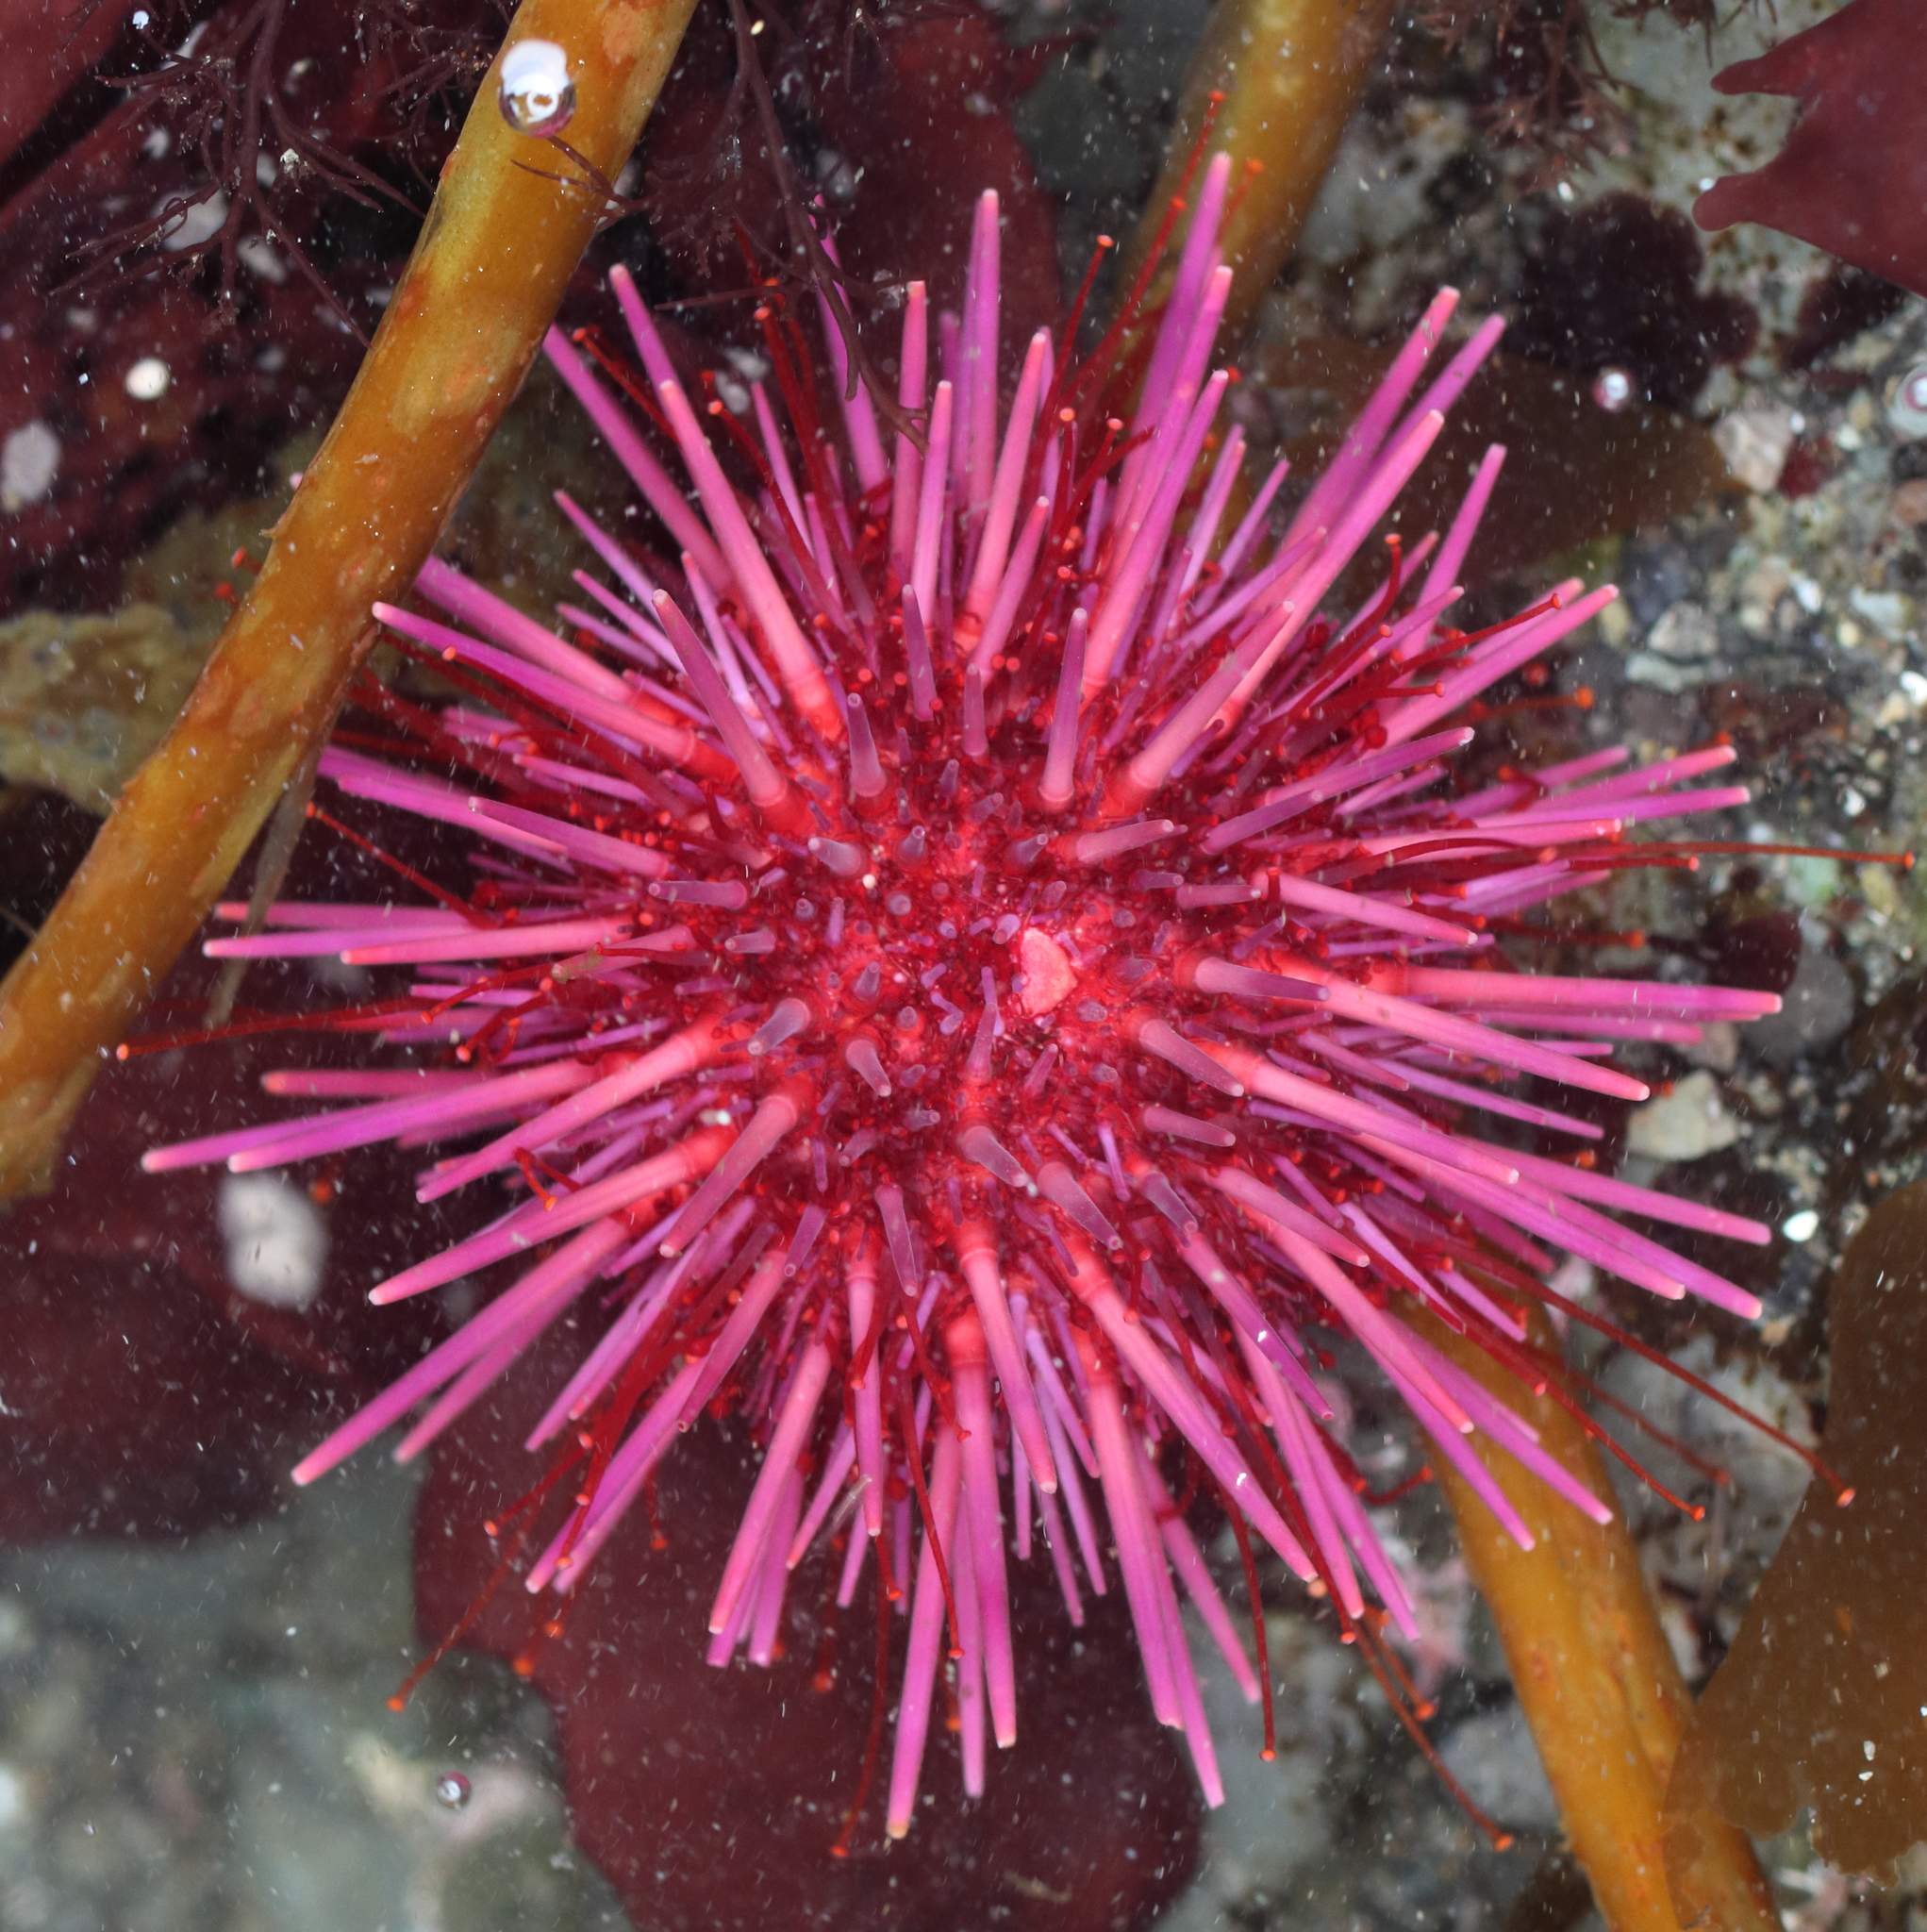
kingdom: Animalia
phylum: Echinodermata
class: Echinoidea
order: Camarodonta
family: Strongylocentrotidae
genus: Mesocentrotus
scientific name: Mesocentrotus franciscanus
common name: Red sea urchin
